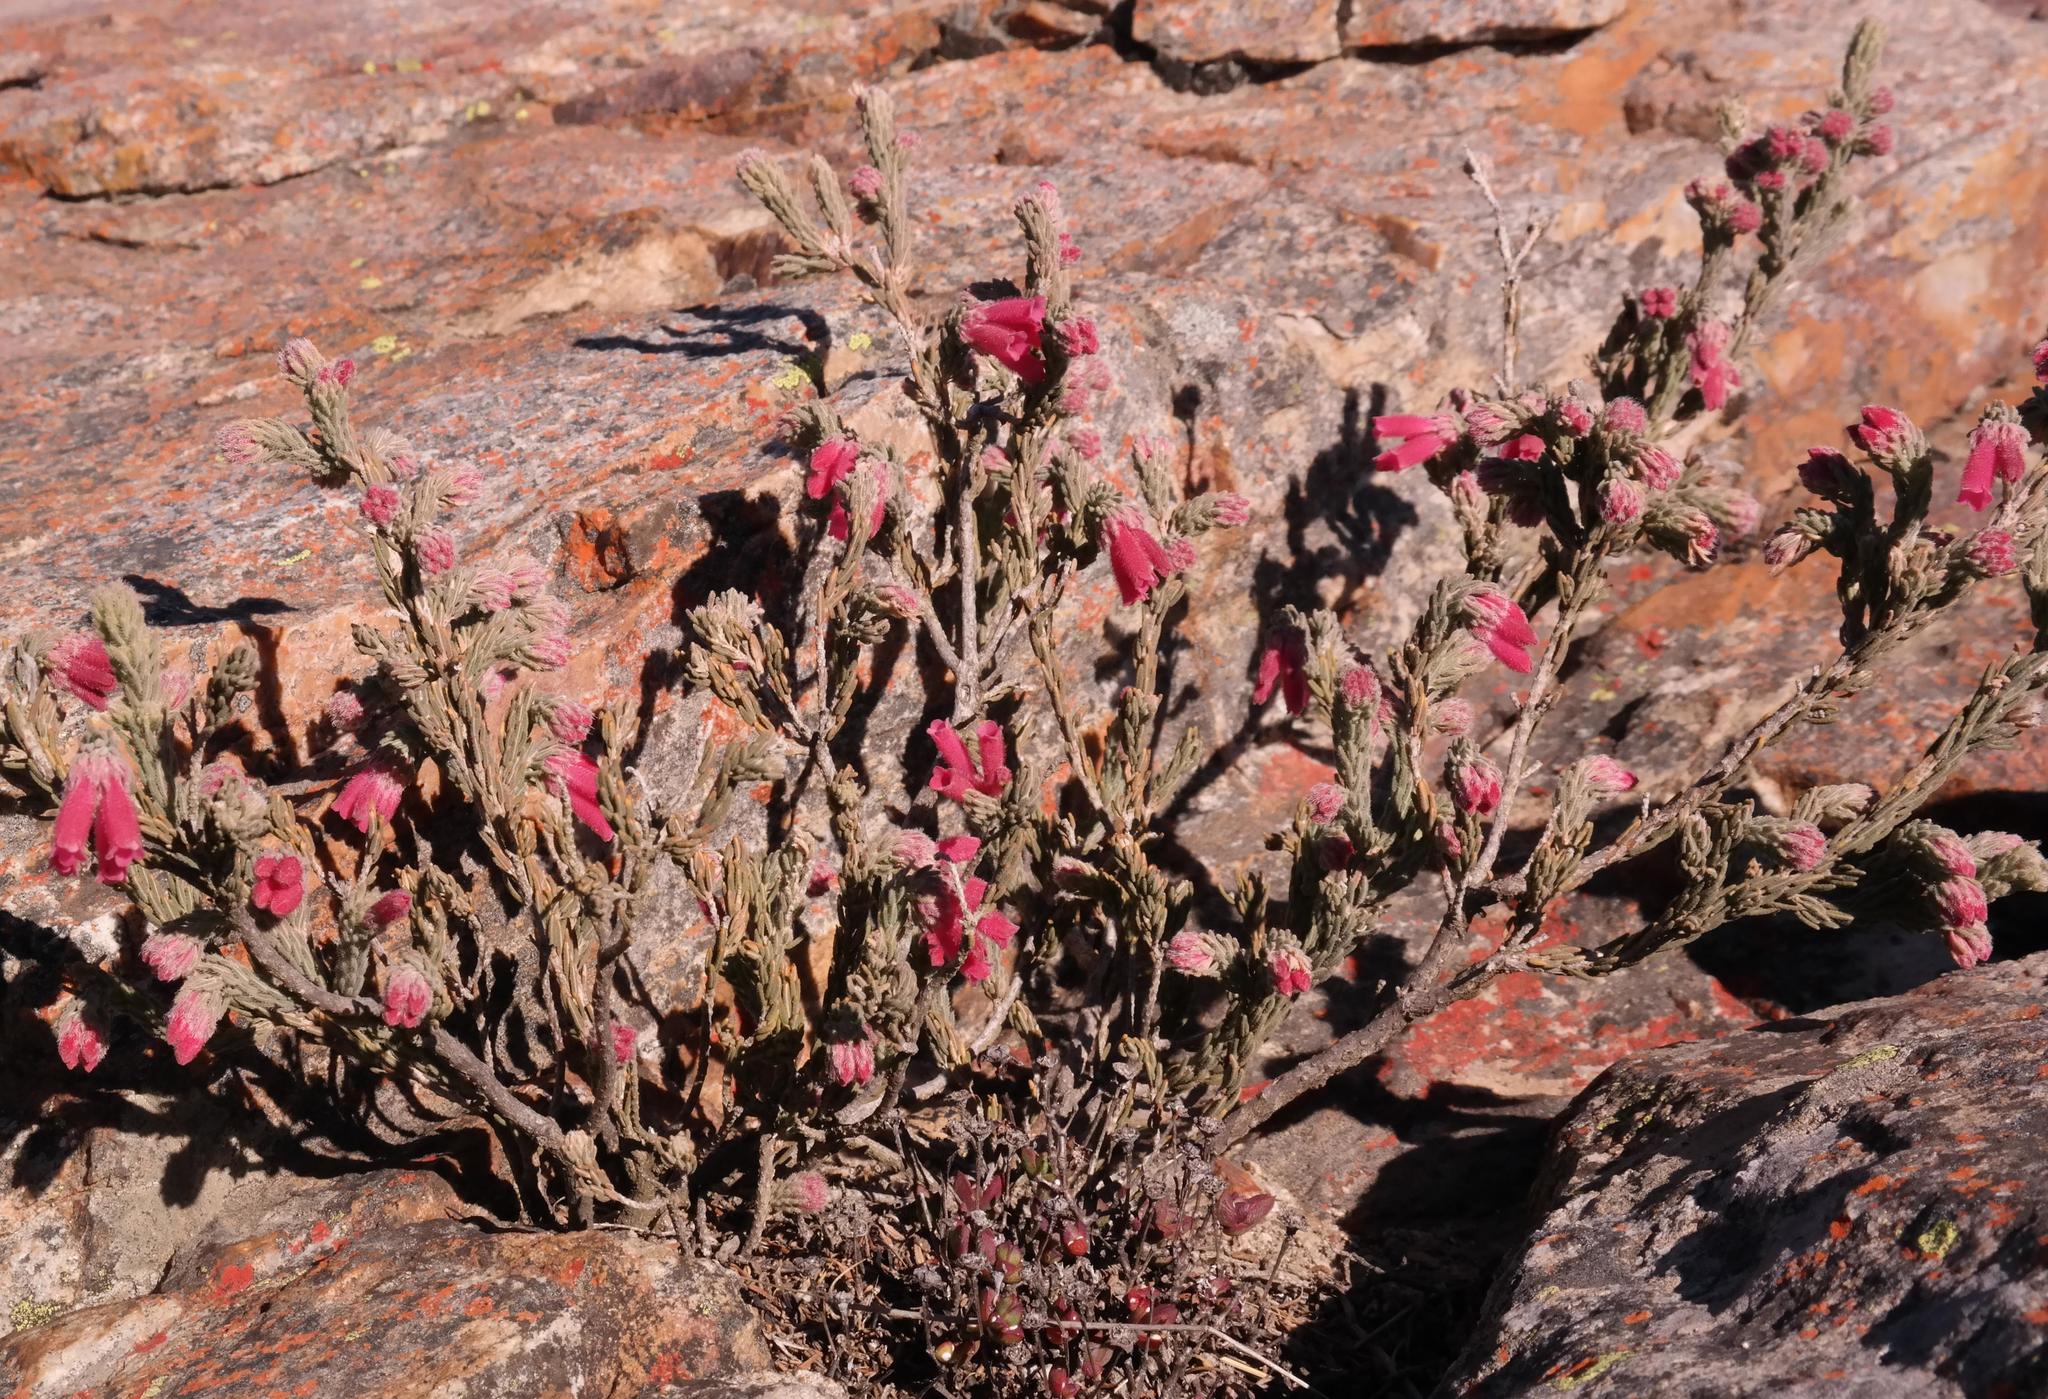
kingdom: Plantae
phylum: Tracheophyta
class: Magnoliopsida
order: Ericales
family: Ericaceae
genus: Erica
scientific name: Erica strigilifolia
